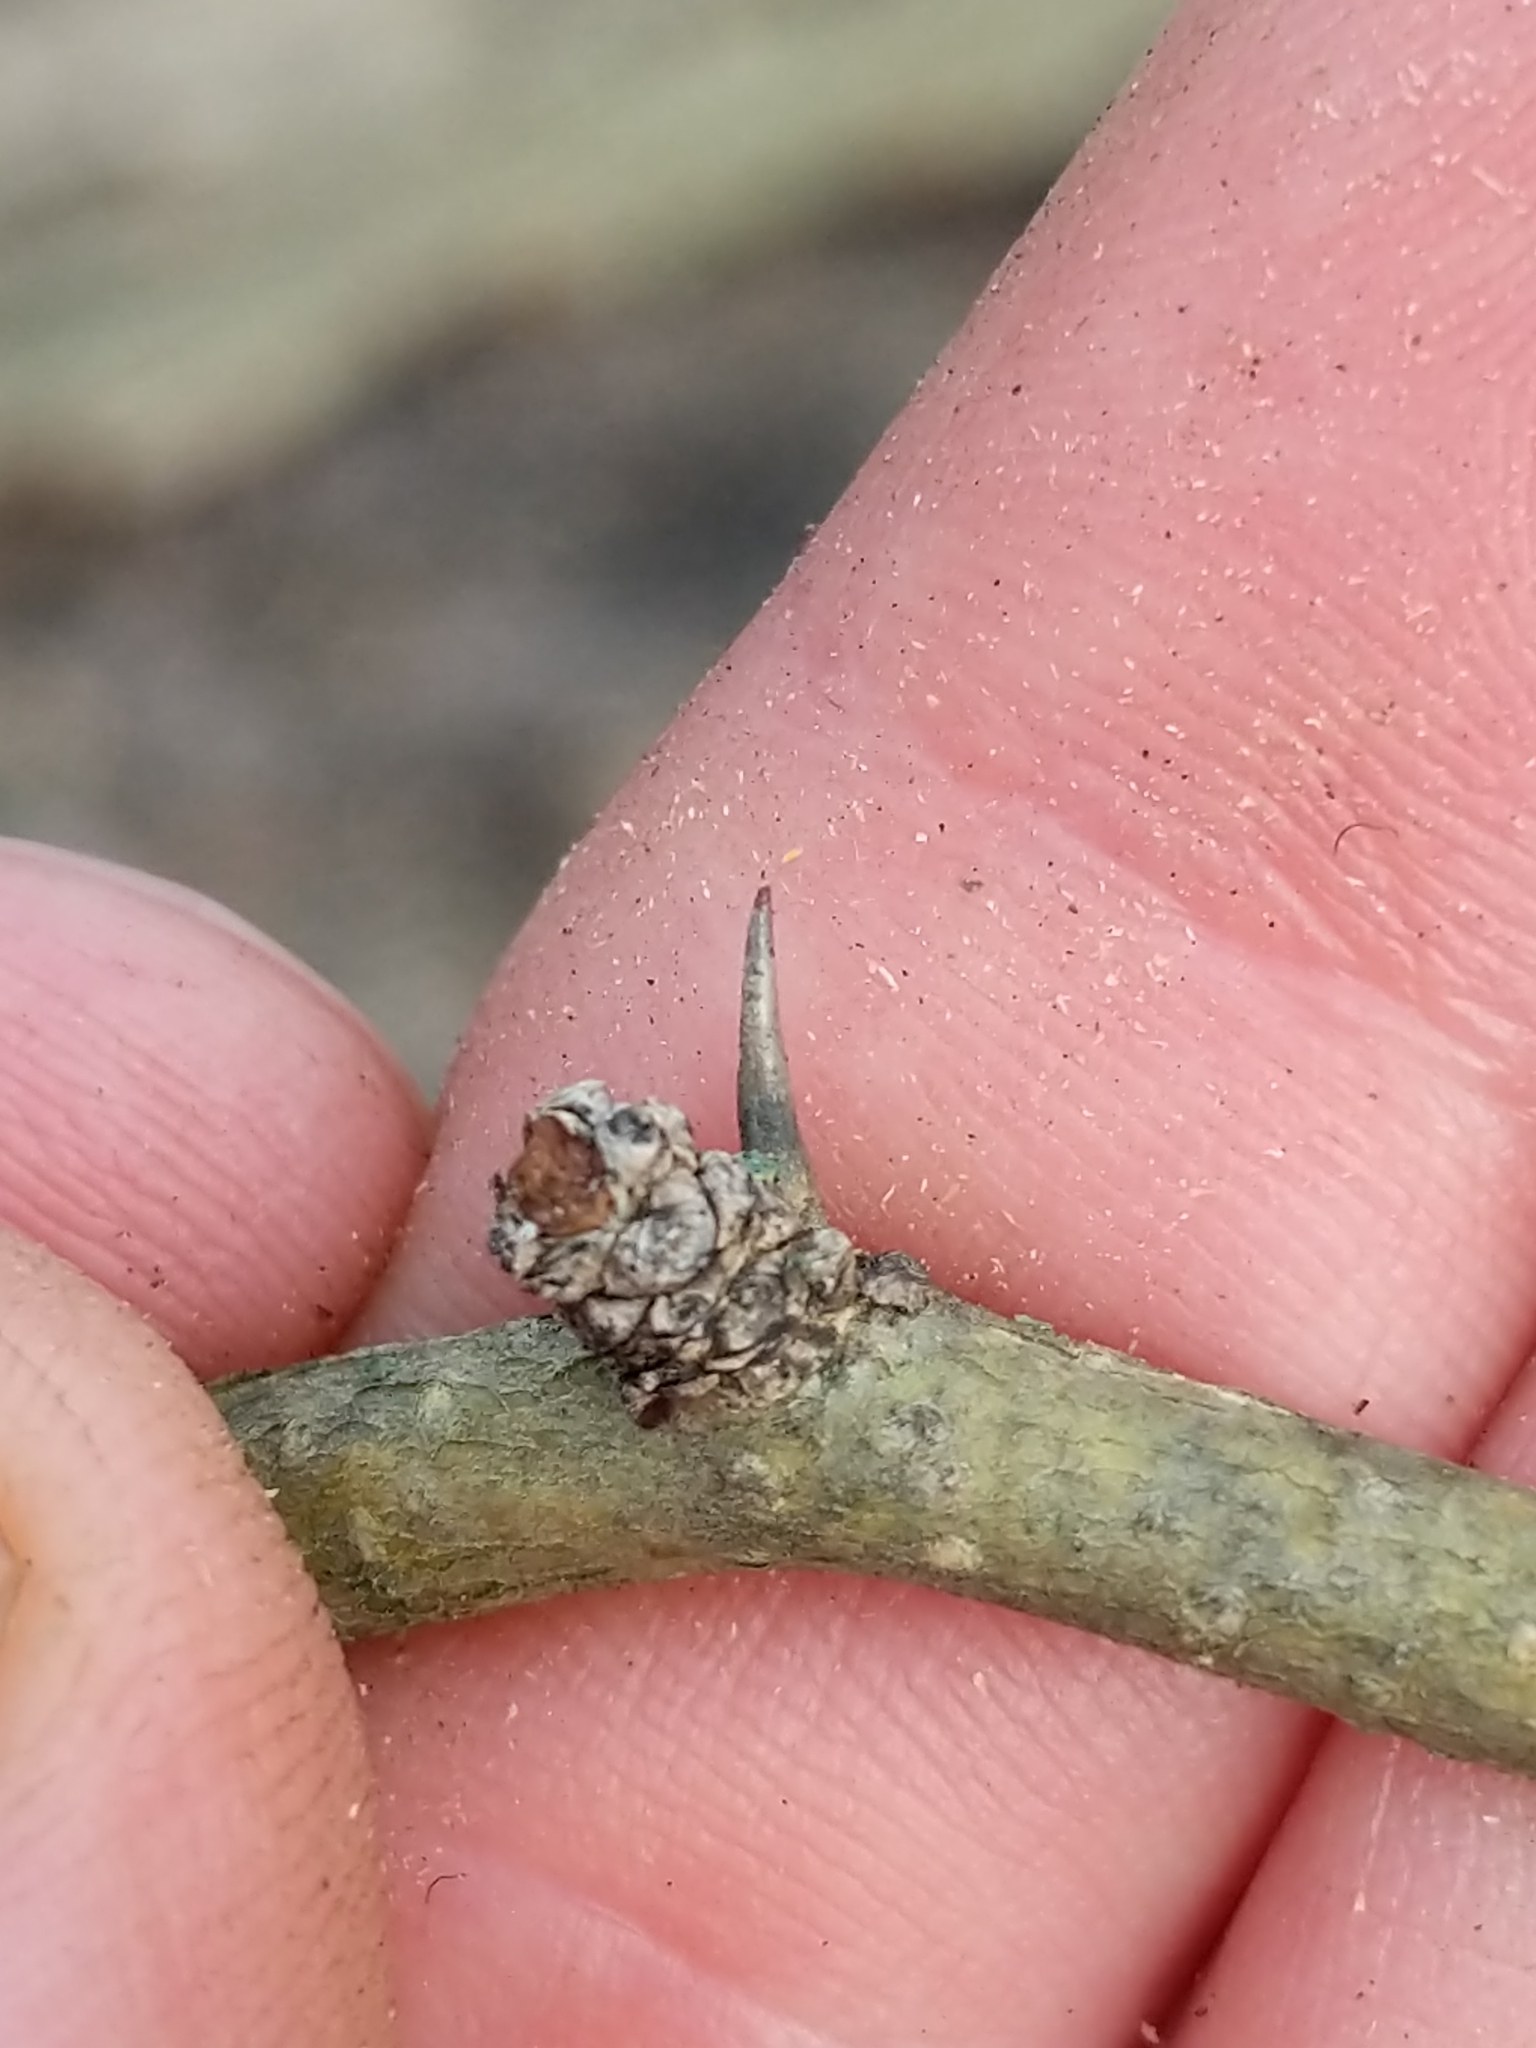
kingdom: Plantae
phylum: Tracheophyta
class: Magnoliopsida
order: Rosales
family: Moraceae
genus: Maclura
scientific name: Maclura pomifera
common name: Osage-orange
